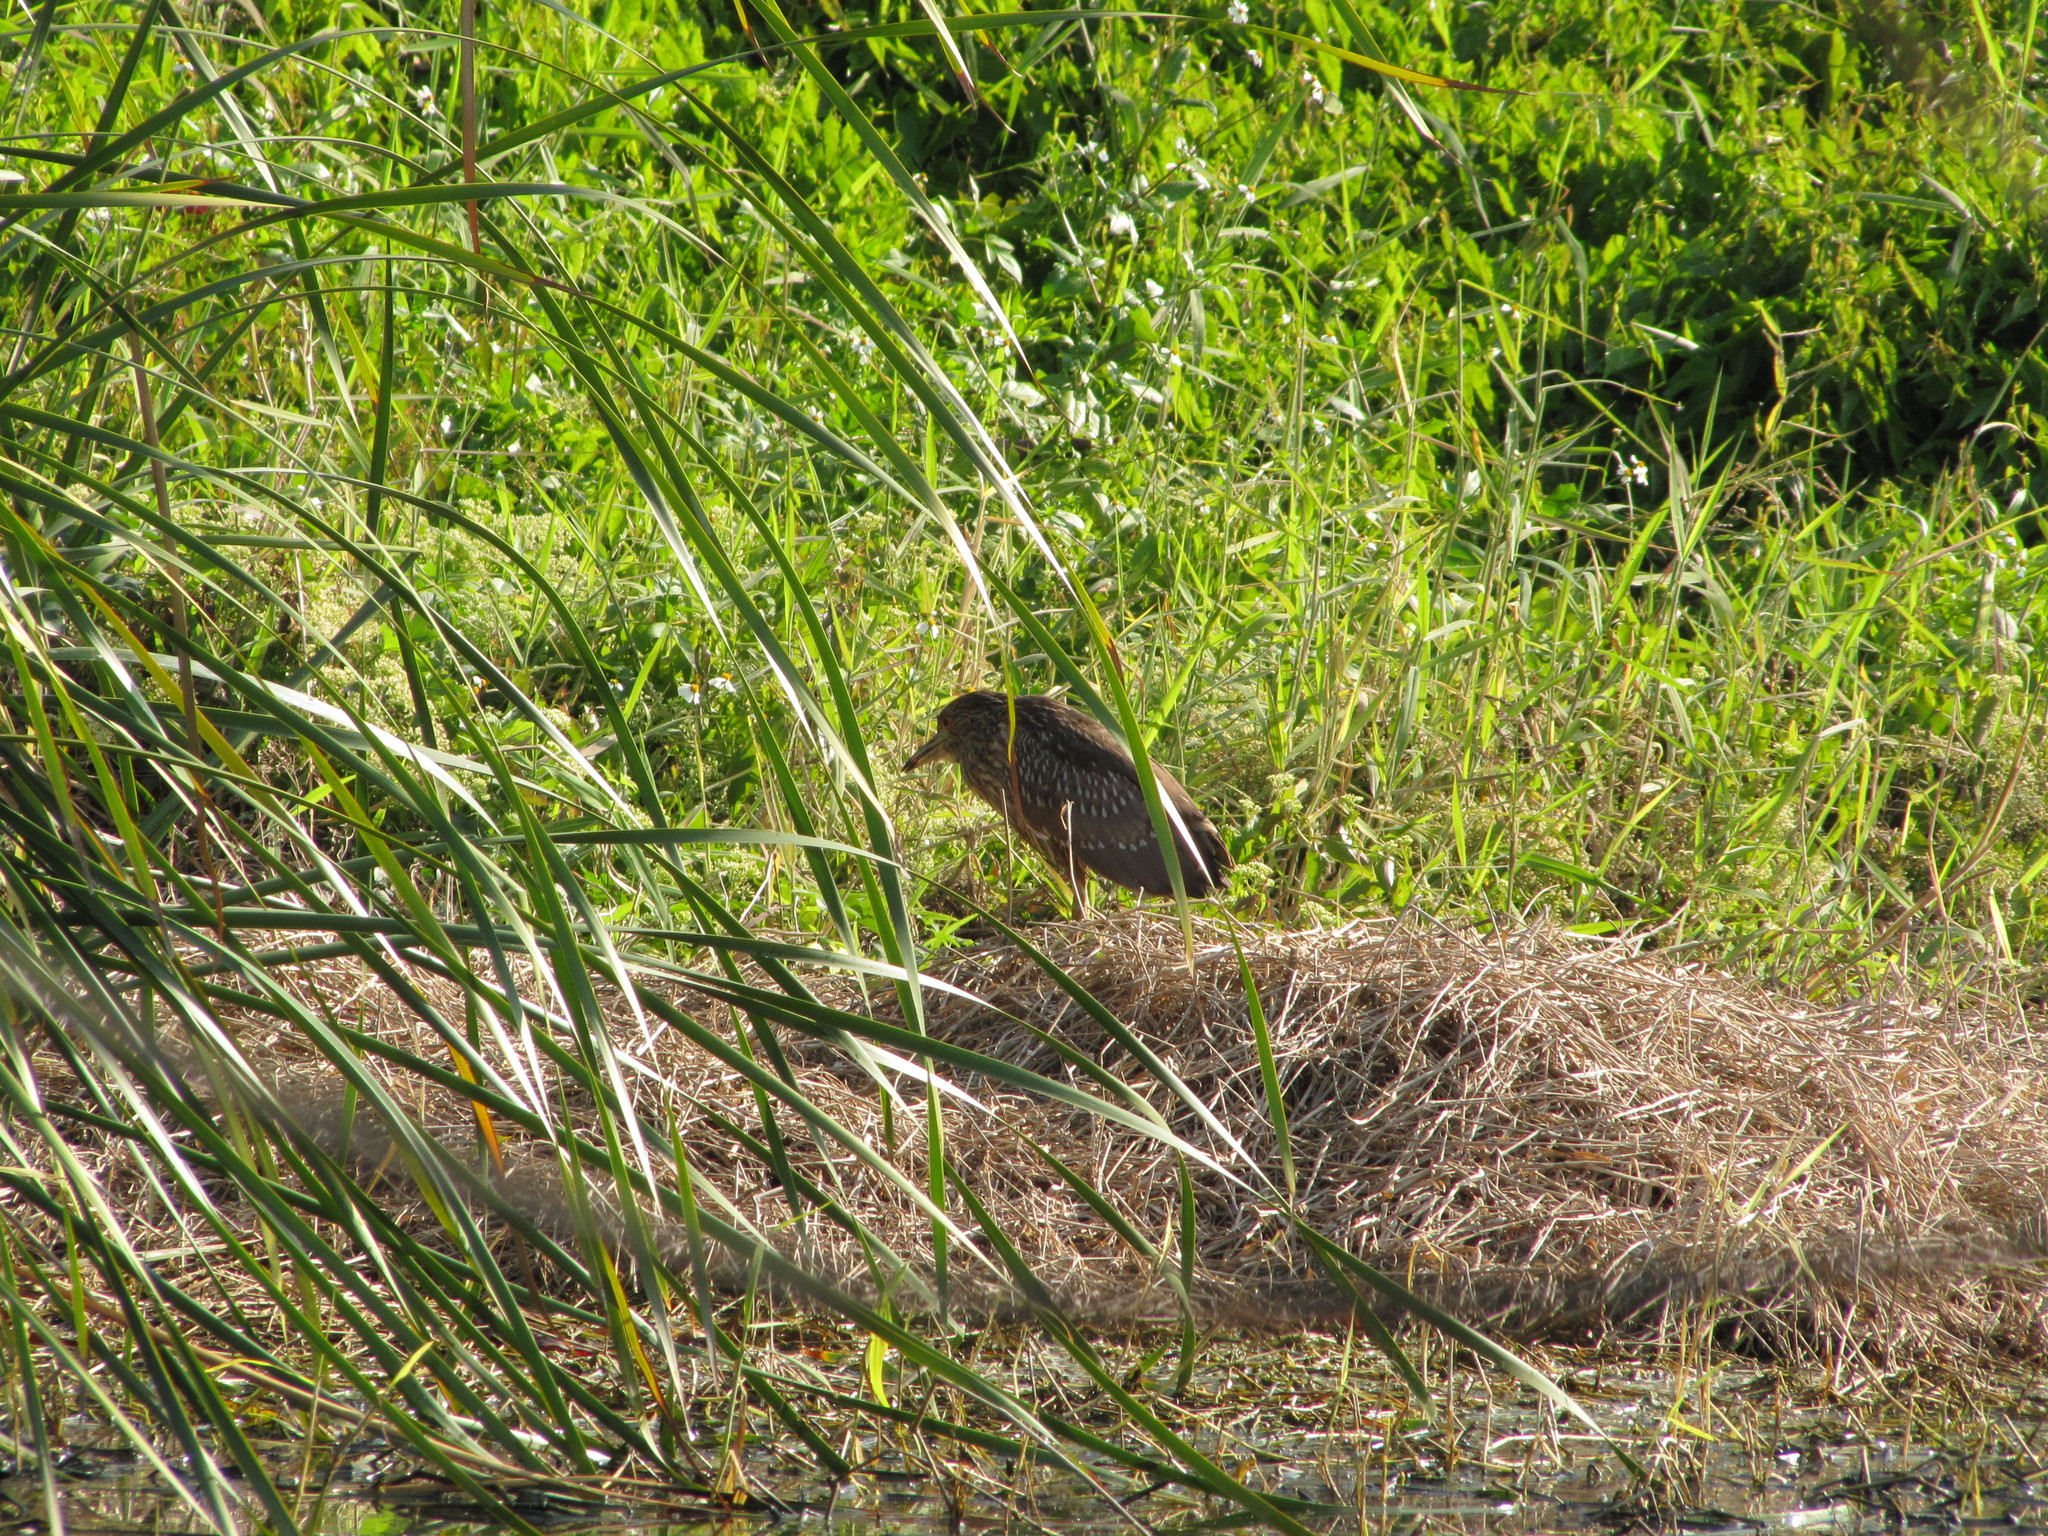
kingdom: Animalia
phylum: Chordata
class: Aves
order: Pelecaniformes
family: Ardeidae
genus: Nycticorax
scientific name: Nycticorax nycticorax
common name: Black-crowned night heron
